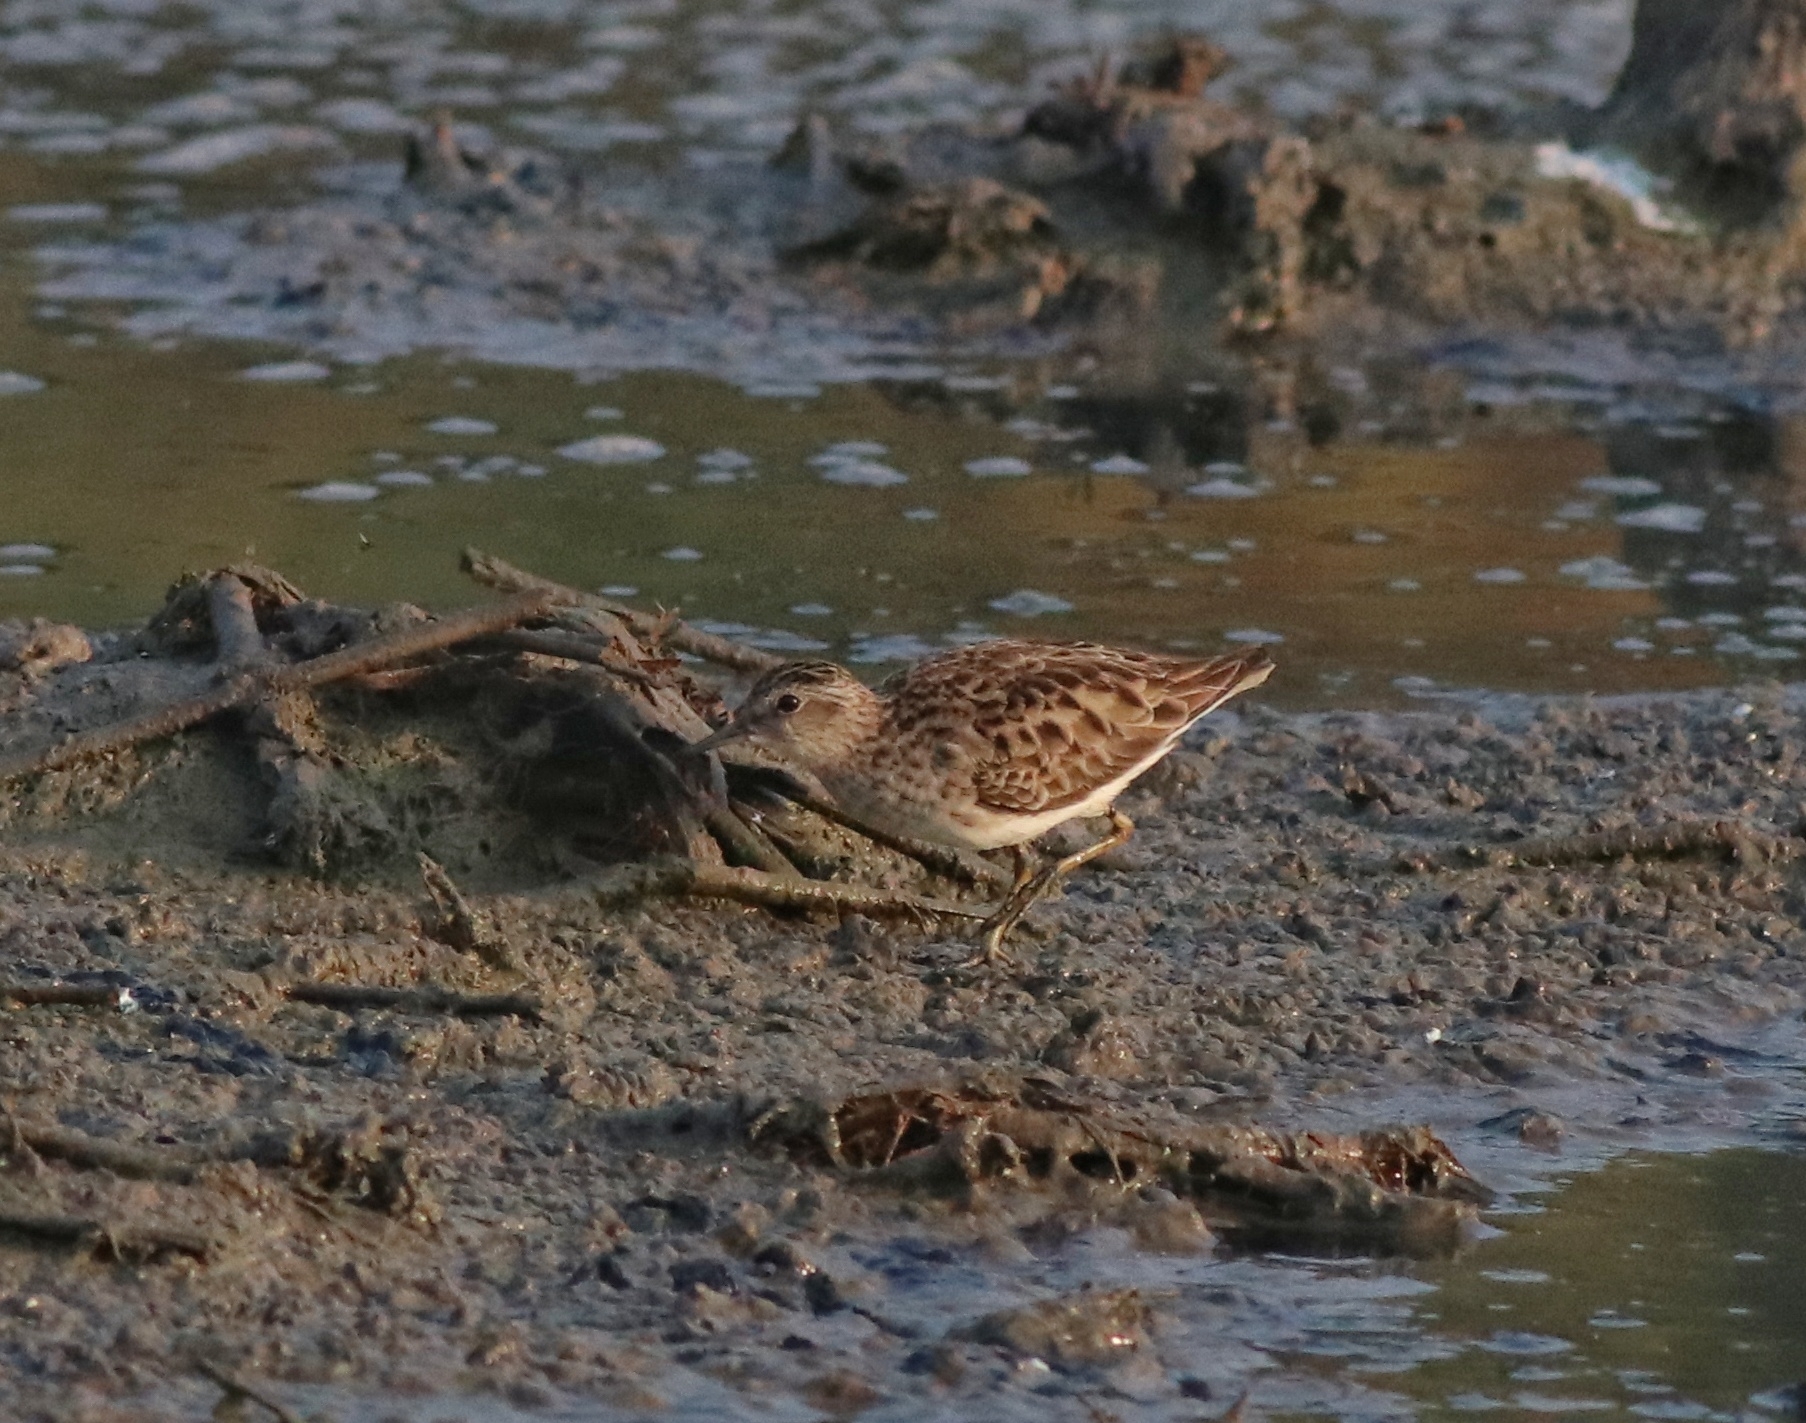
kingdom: Animalia
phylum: Chordata
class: Aves
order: Charadriiformes
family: Scolopacidae
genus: Calidris
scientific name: Calidris subminuta
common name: Long-toed stint
